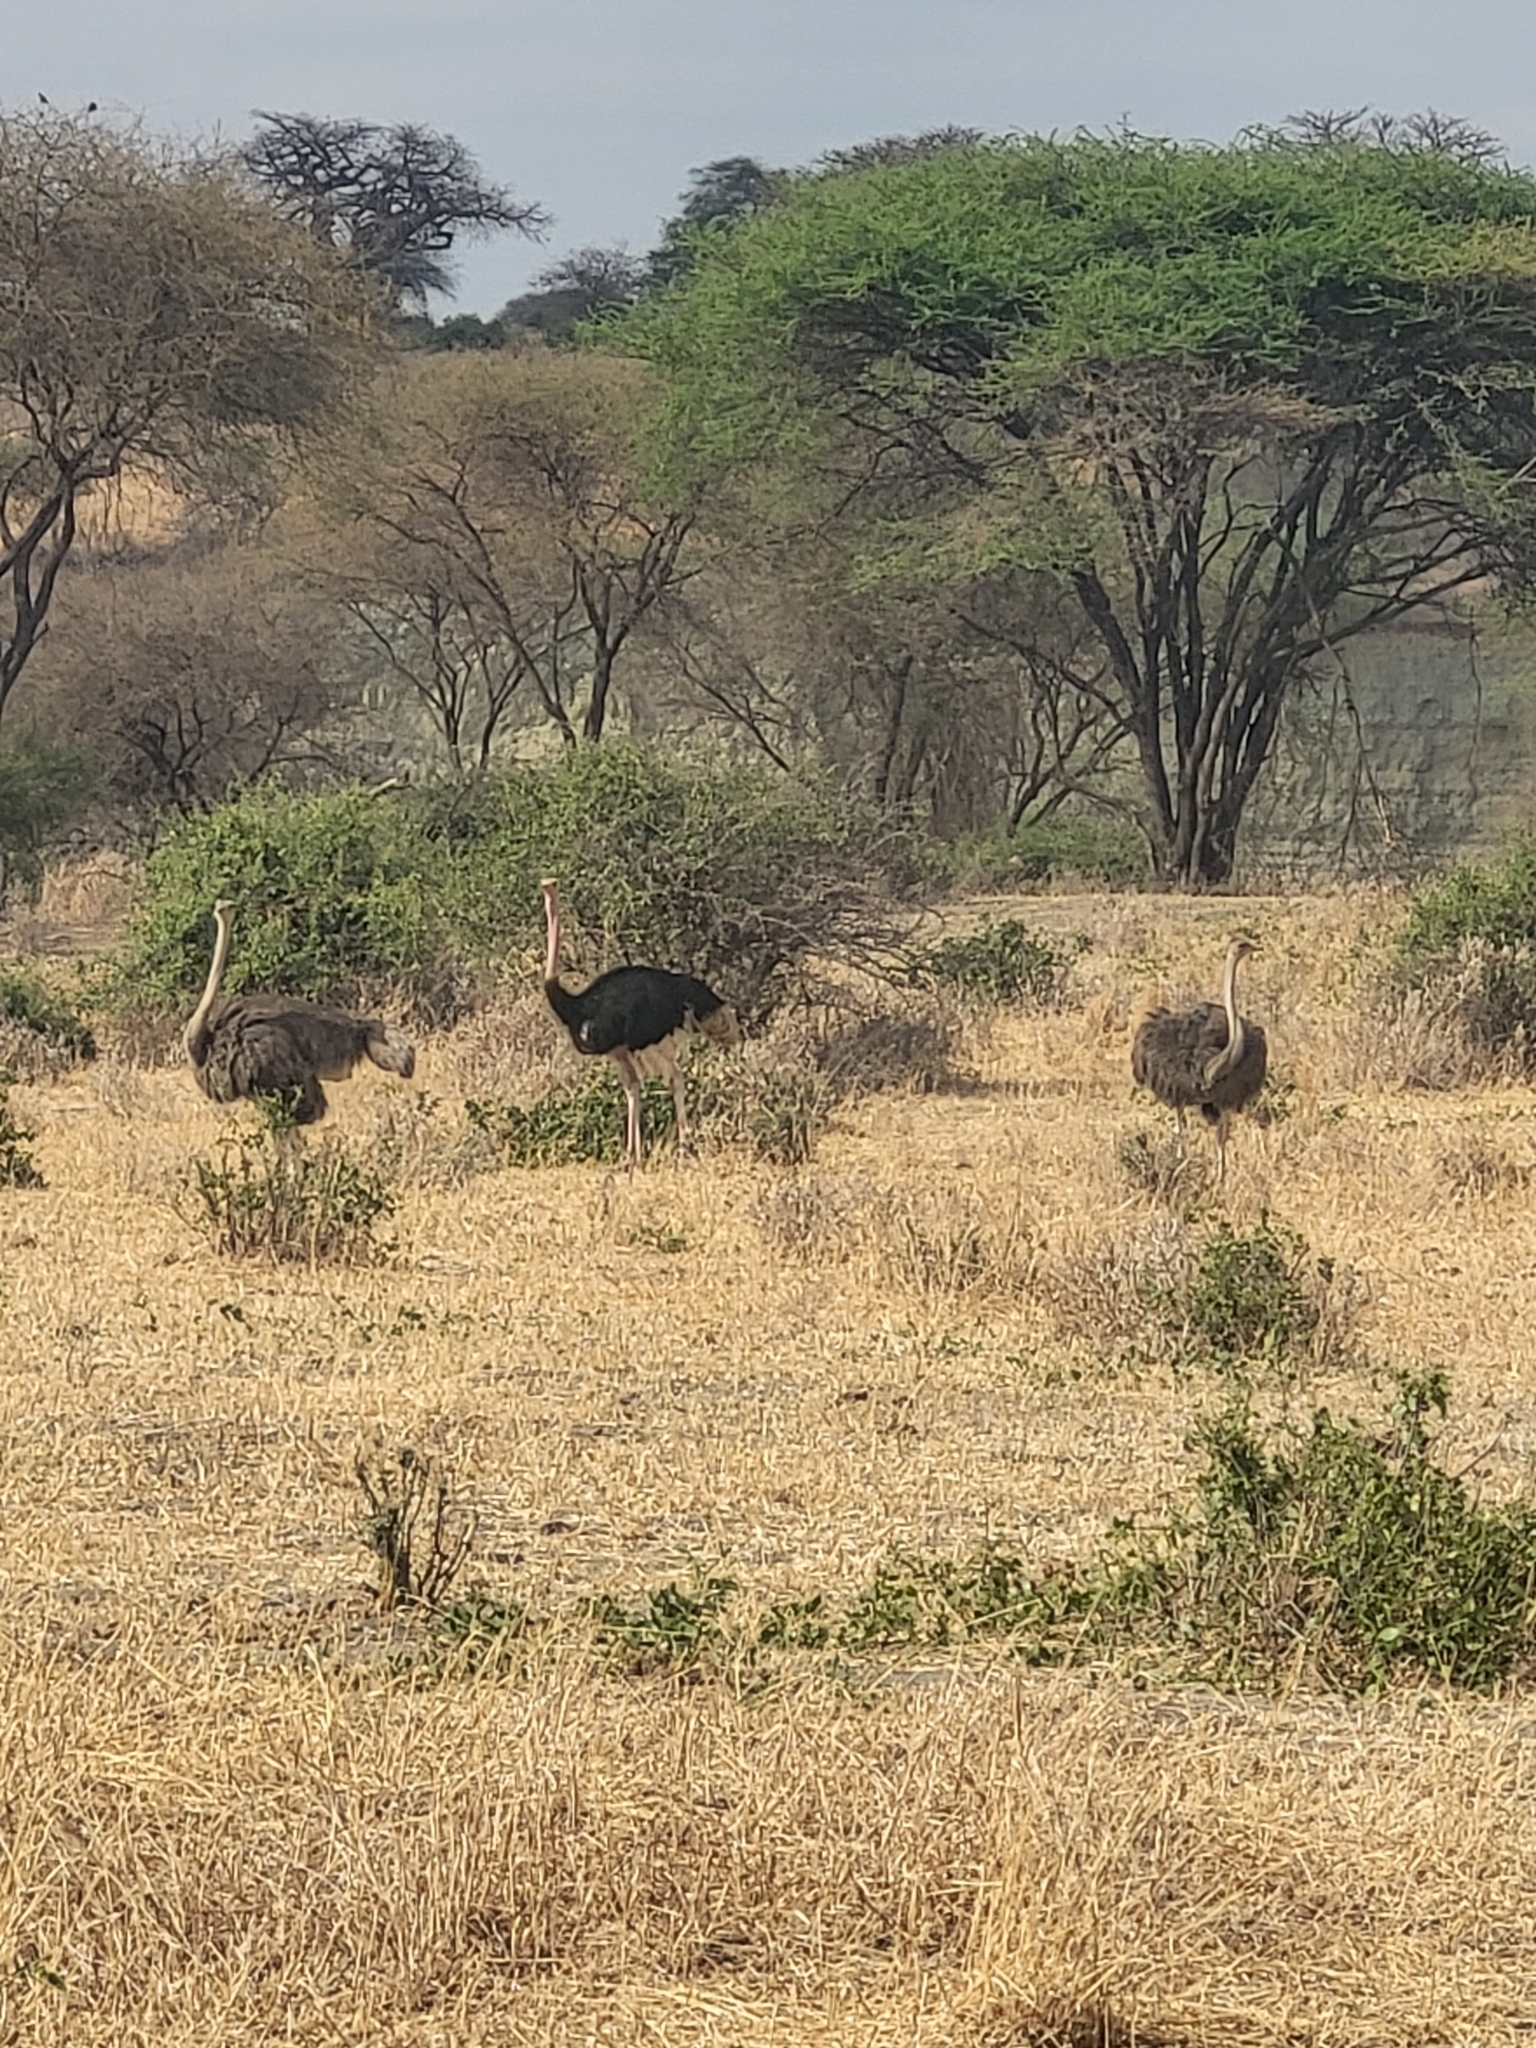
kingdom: Animalia
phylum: Chordata
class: Aves
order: Struthioniformes
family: Struthionidae
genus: Struthio
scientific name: Struthio camelus
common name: Common ostrich
